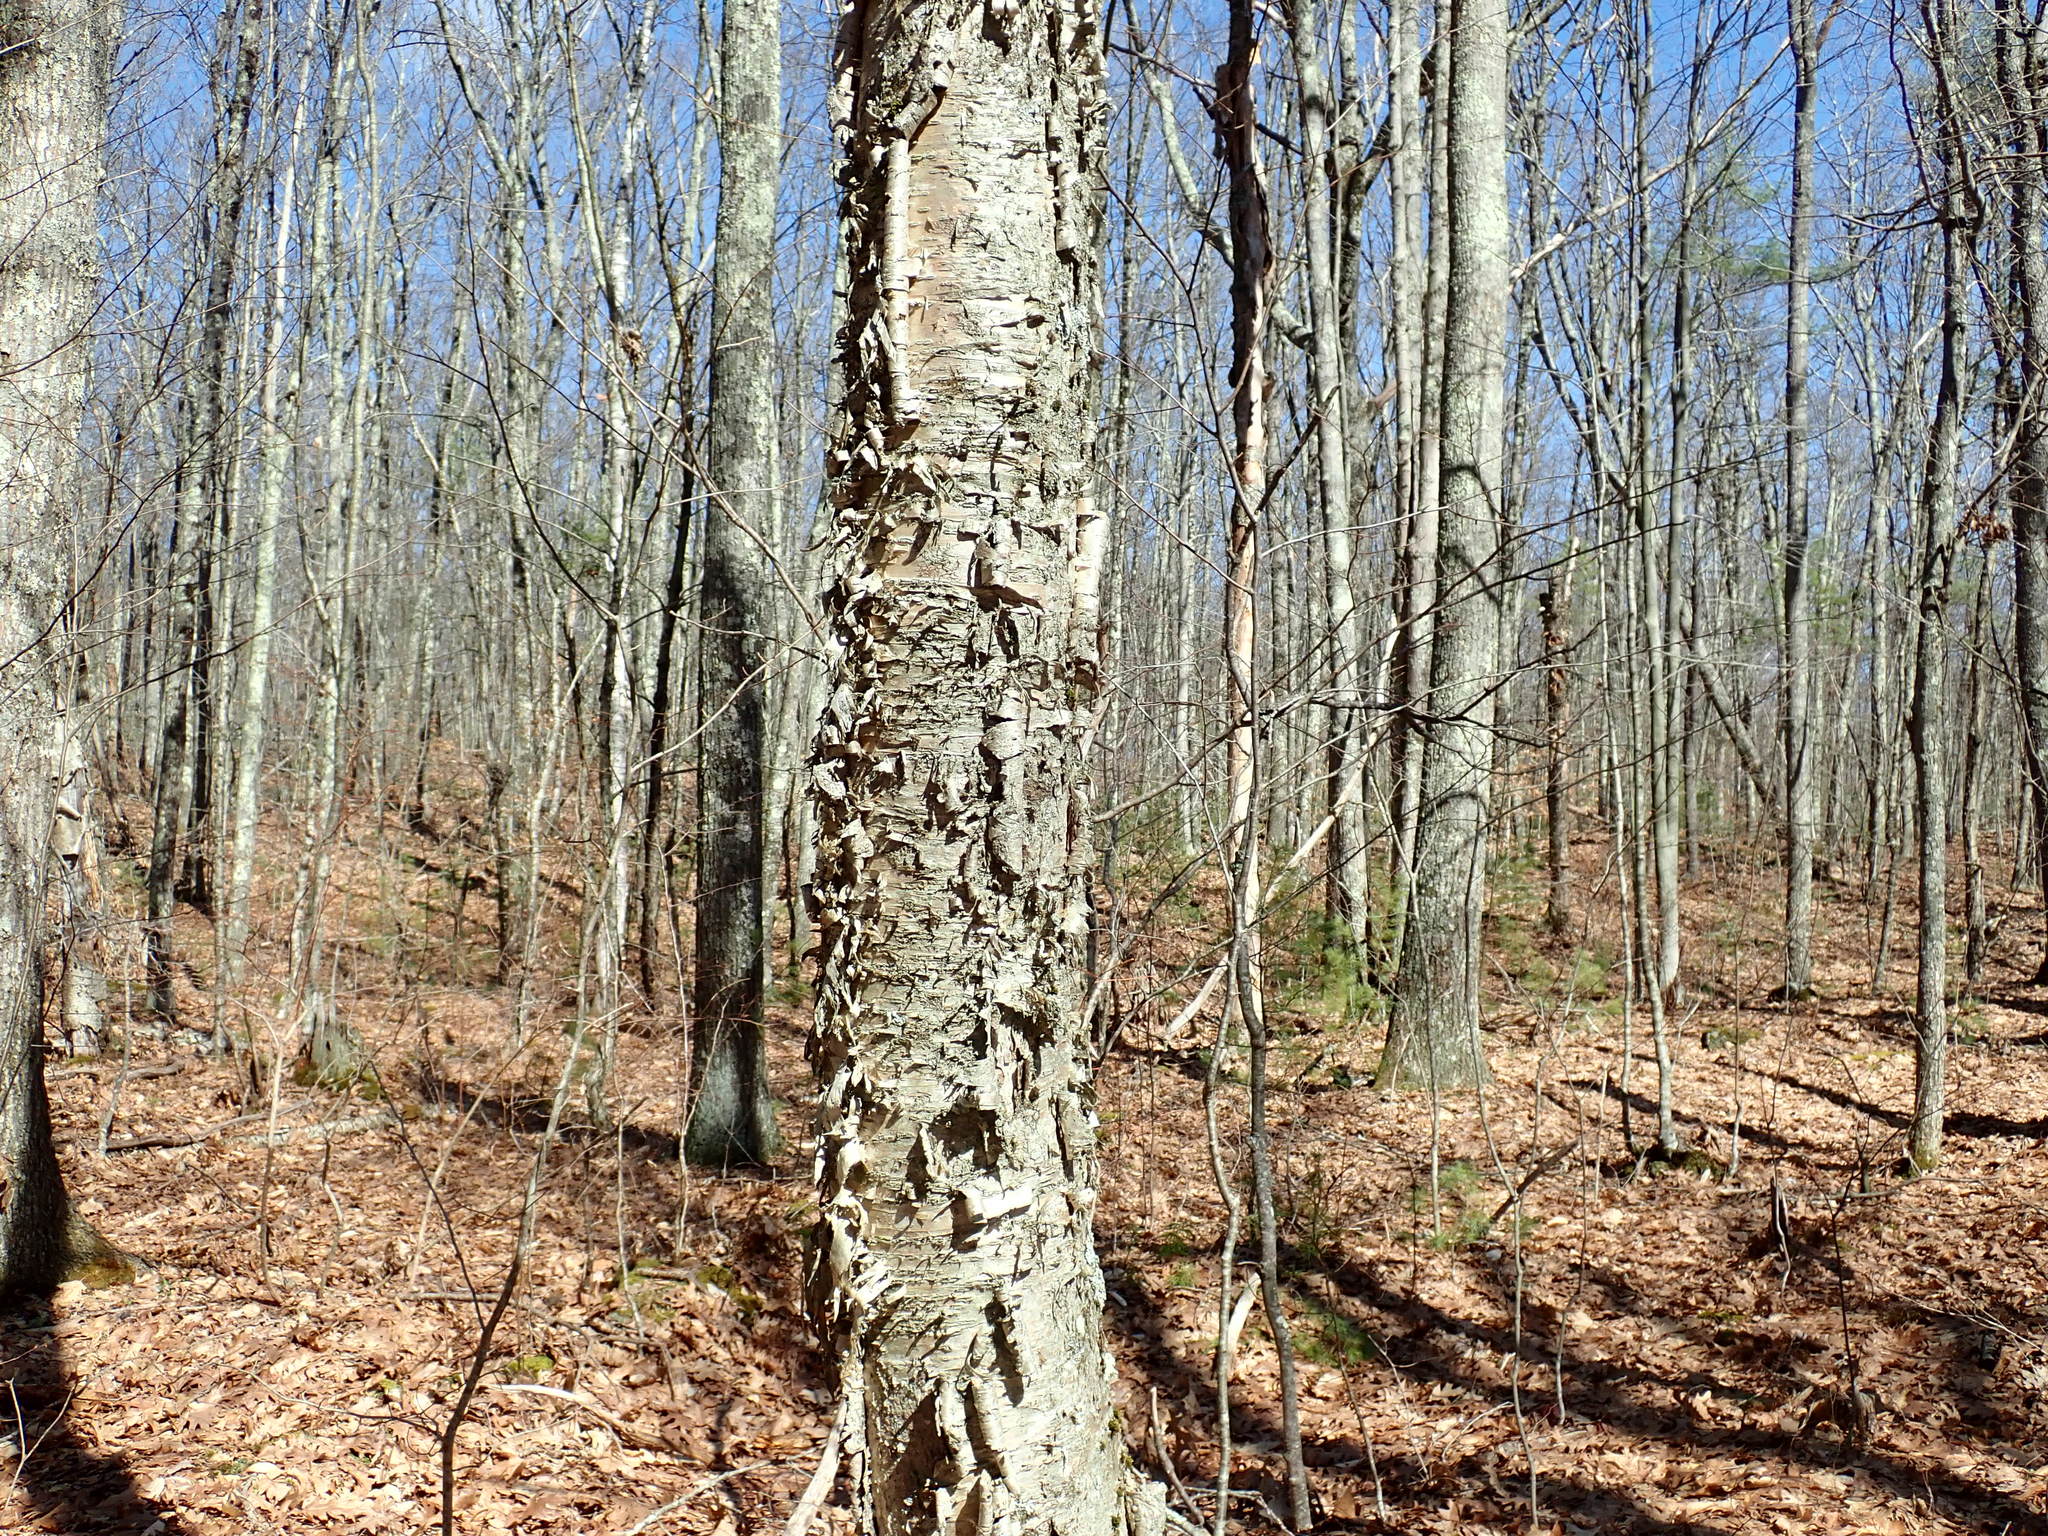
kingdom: Plantae
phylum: Tracheophyta
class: Magnoliopsida
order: Fagales
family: Betulaceae
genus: Betula
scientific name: Betula alleghaniensis
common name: Yellow birch
